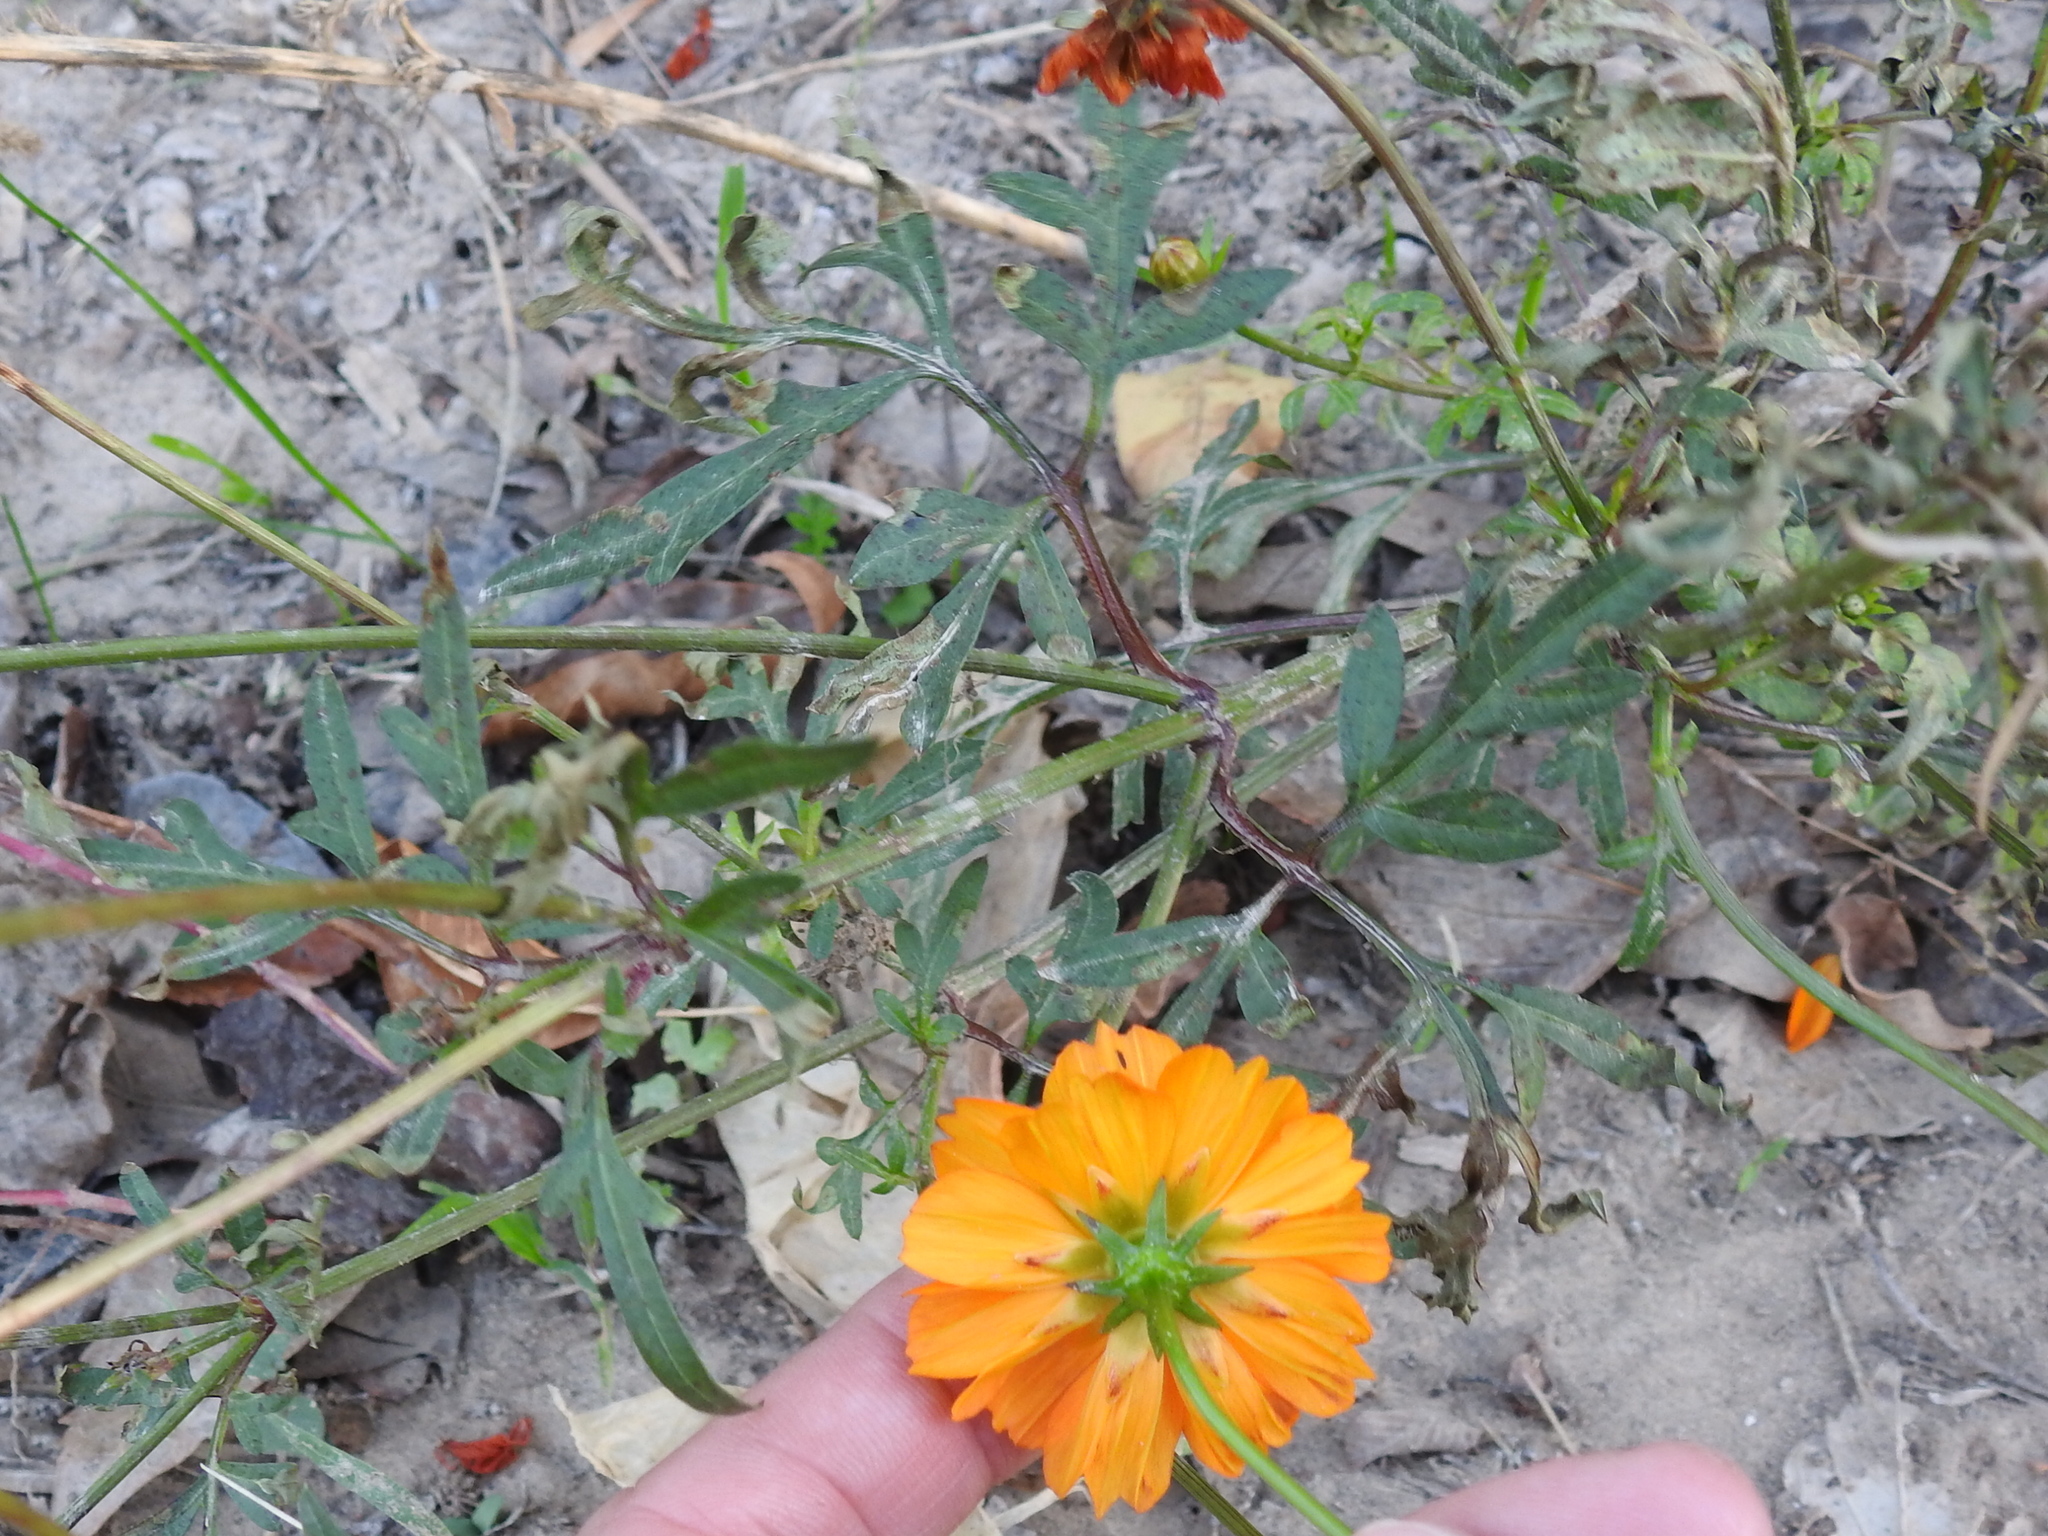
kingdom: Plantae
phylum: Tracheophyta
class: Magnoliopsida
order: Asterales
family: Asteraceae
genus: Cosmos
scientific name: Cosmos sulphureus
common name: Sulphur cosmos
